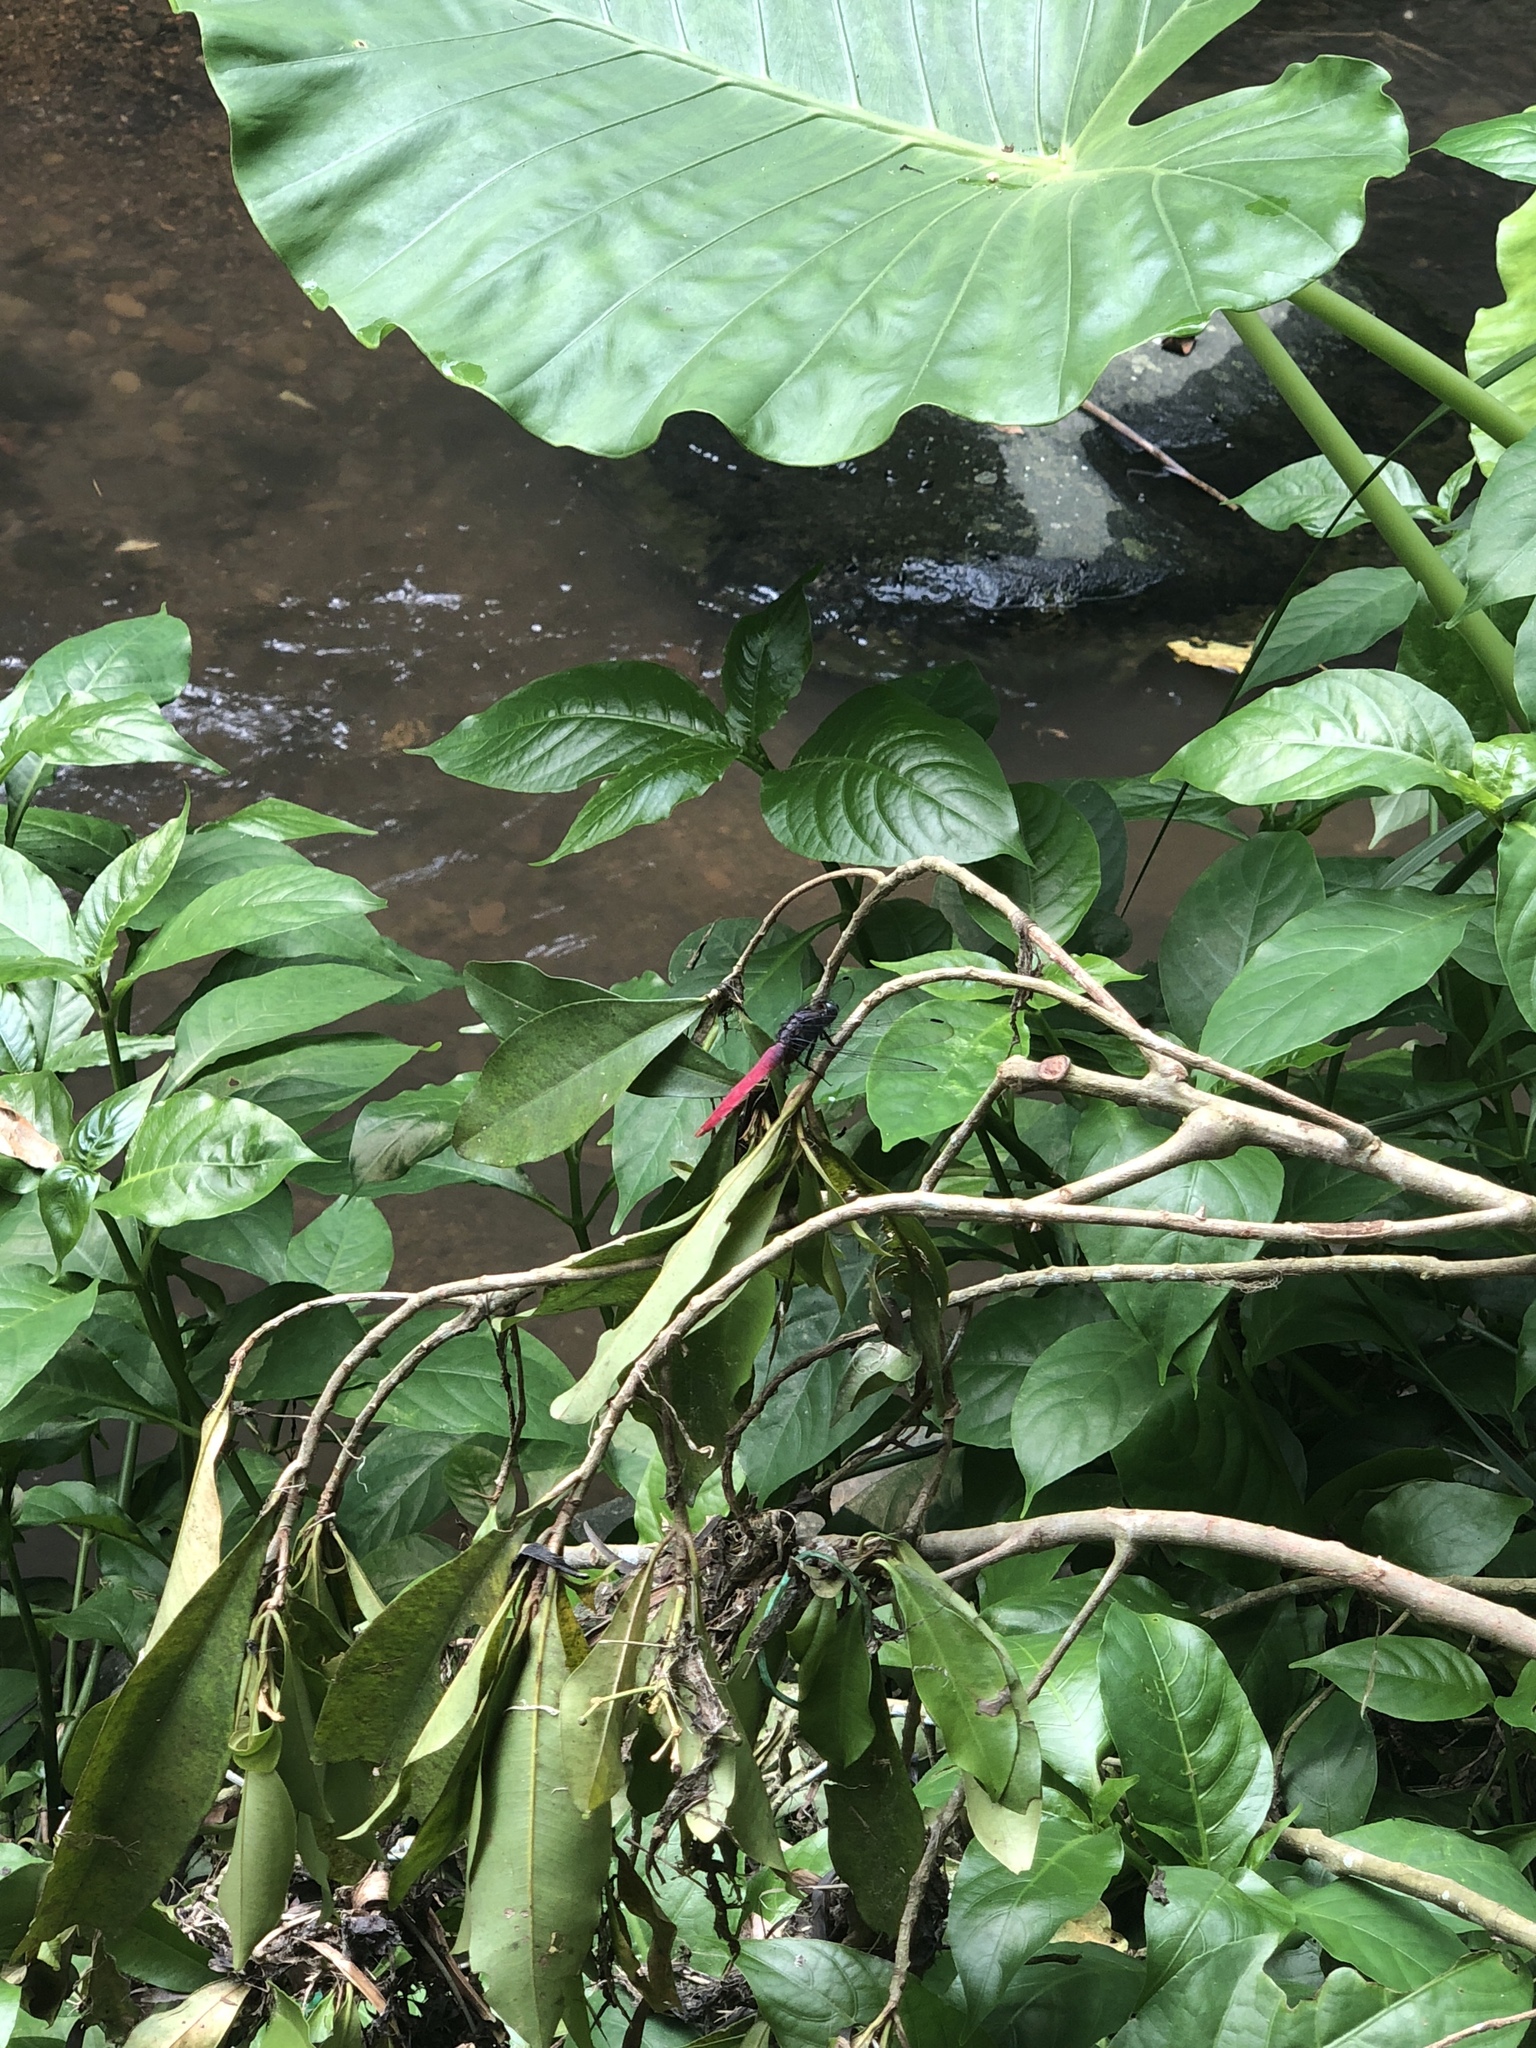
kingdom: Animalia
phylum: Arthropoda
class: Insecta
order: Odonata
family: Libellulidae
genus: Orthetrum
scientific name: Orthetrum pruinosum
